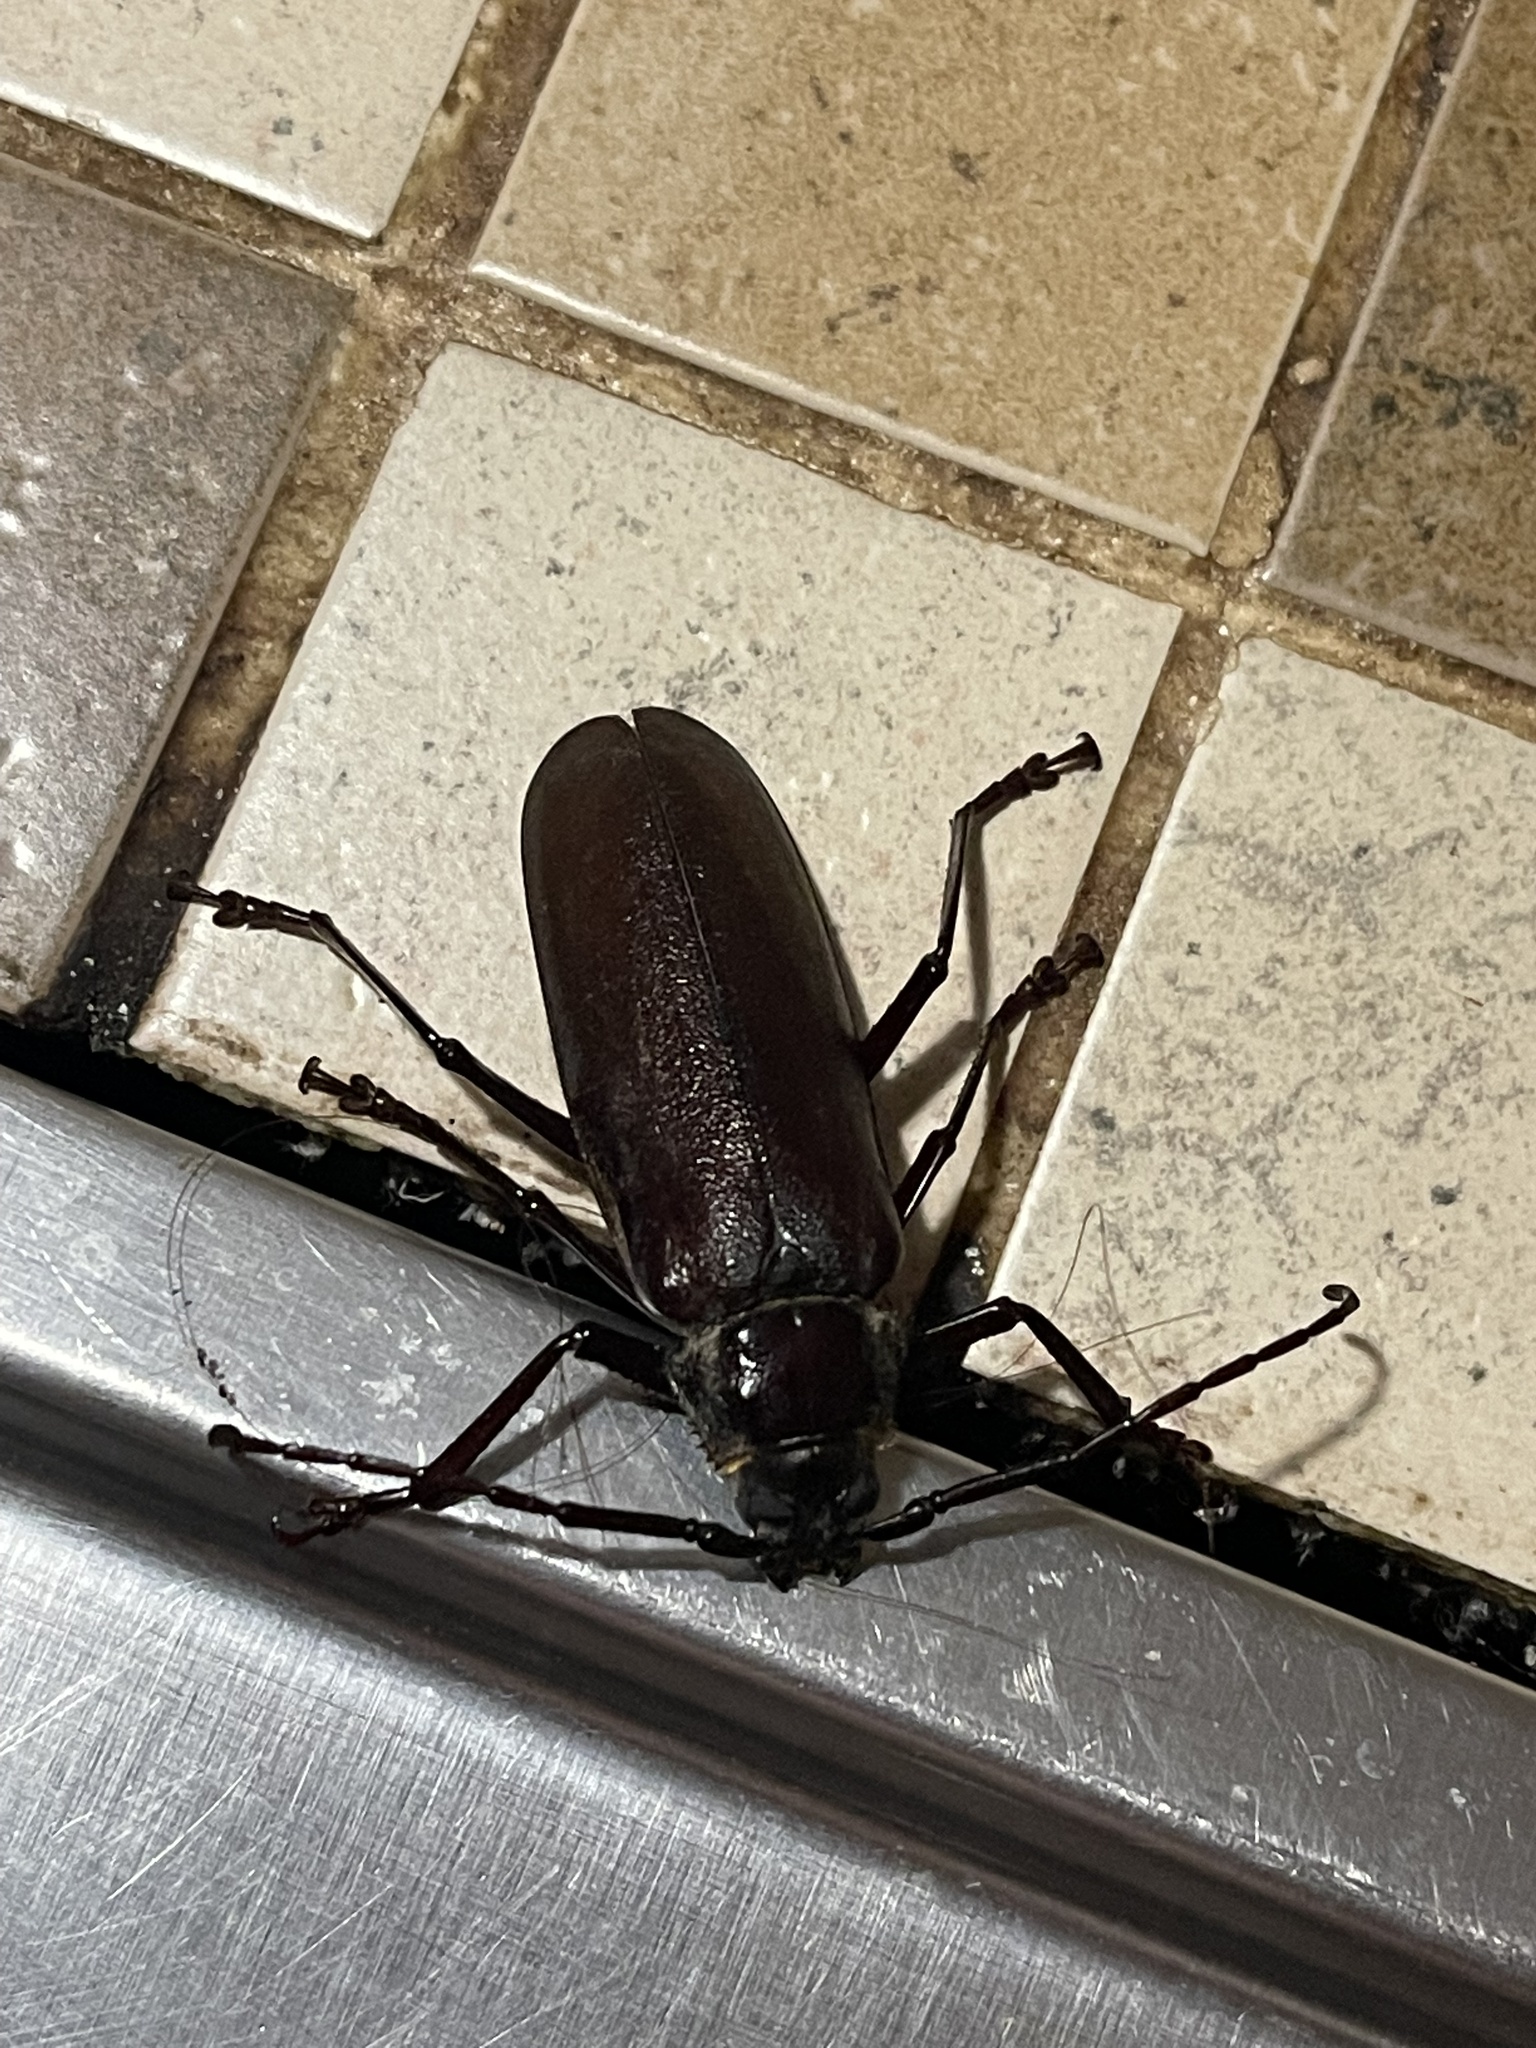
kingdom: Animalia
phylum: Arthropoda
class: Insecta
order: Coleoptera
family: Cerambycidae
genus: Macrotoma
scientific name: Macrotoma palmata
